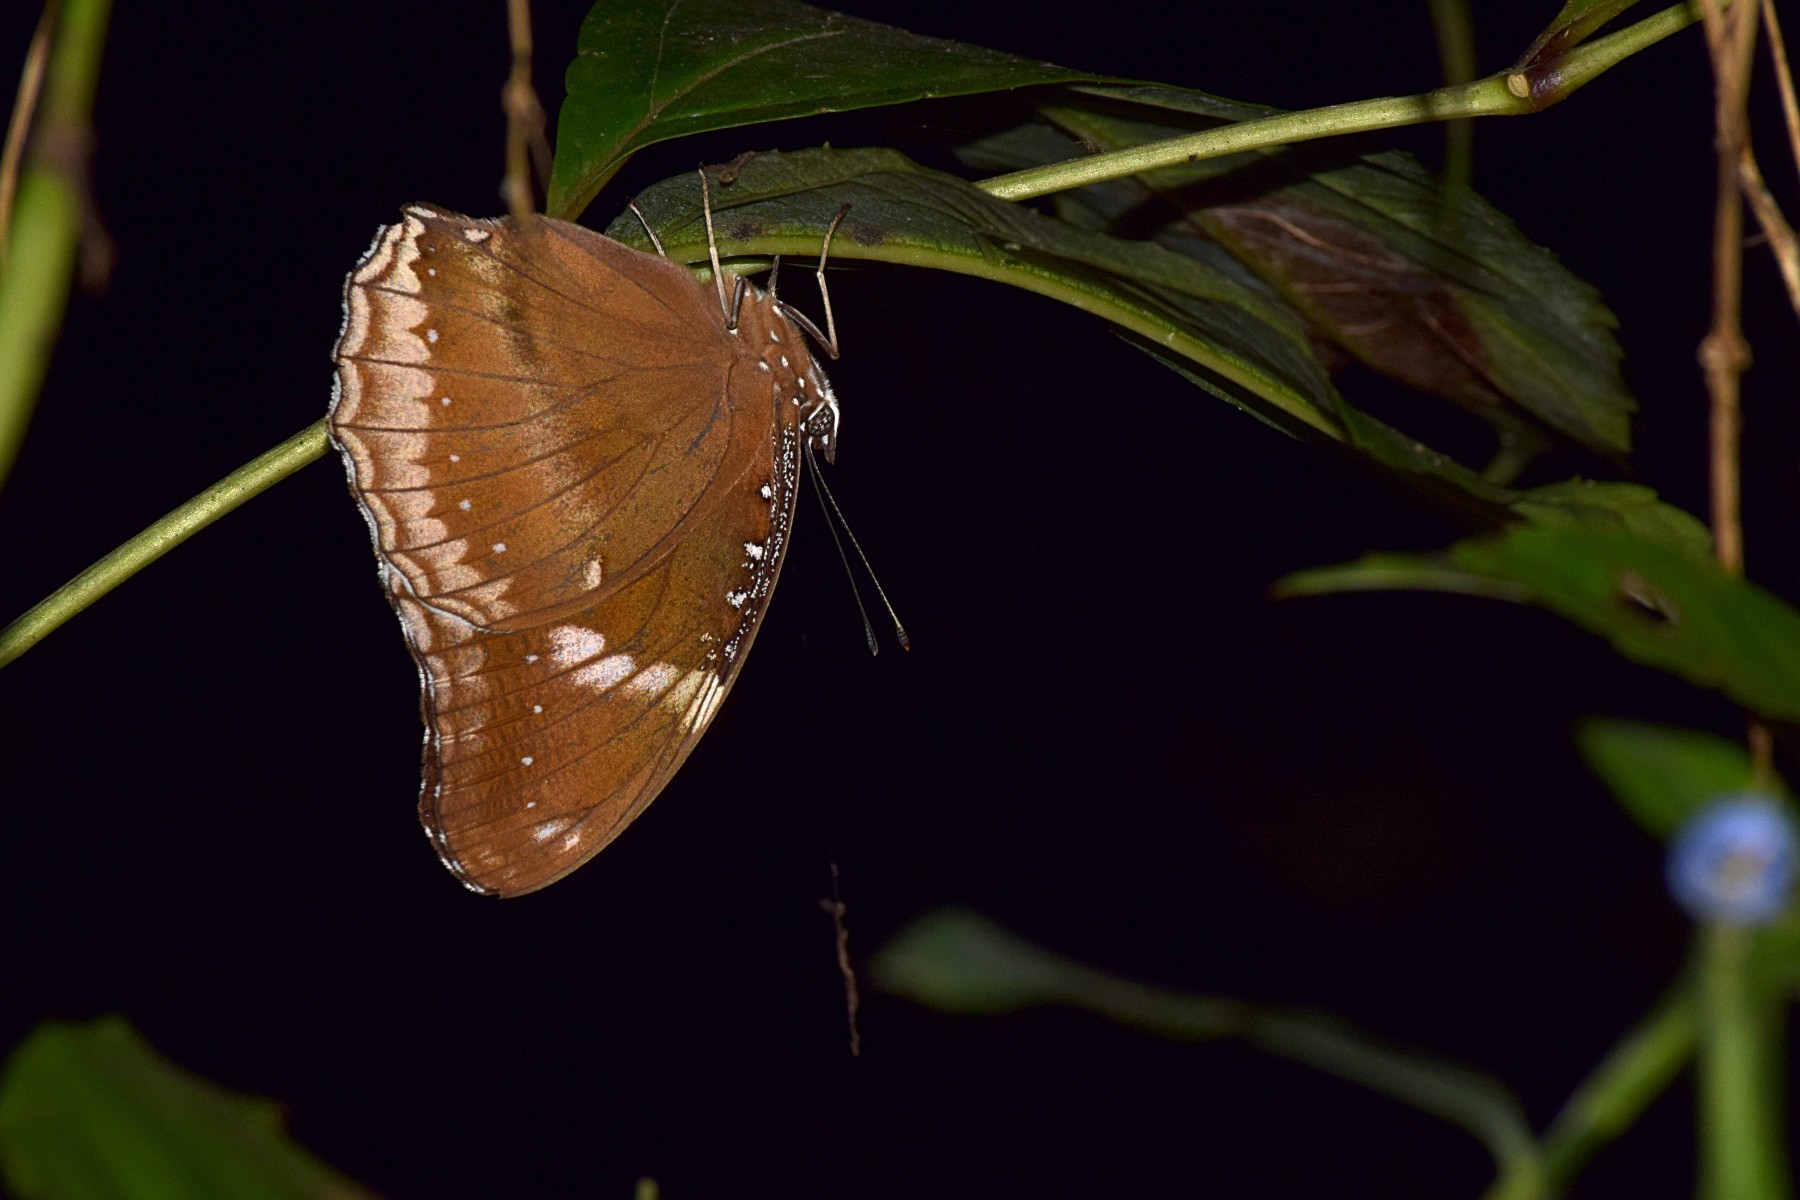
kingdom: Animalia
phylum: Arthropoda
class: Insecta
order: Lepidoptera
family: Nymphalidae
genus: Hypolimnas
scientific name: Hypolimnas bolina
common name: Great eggfly
